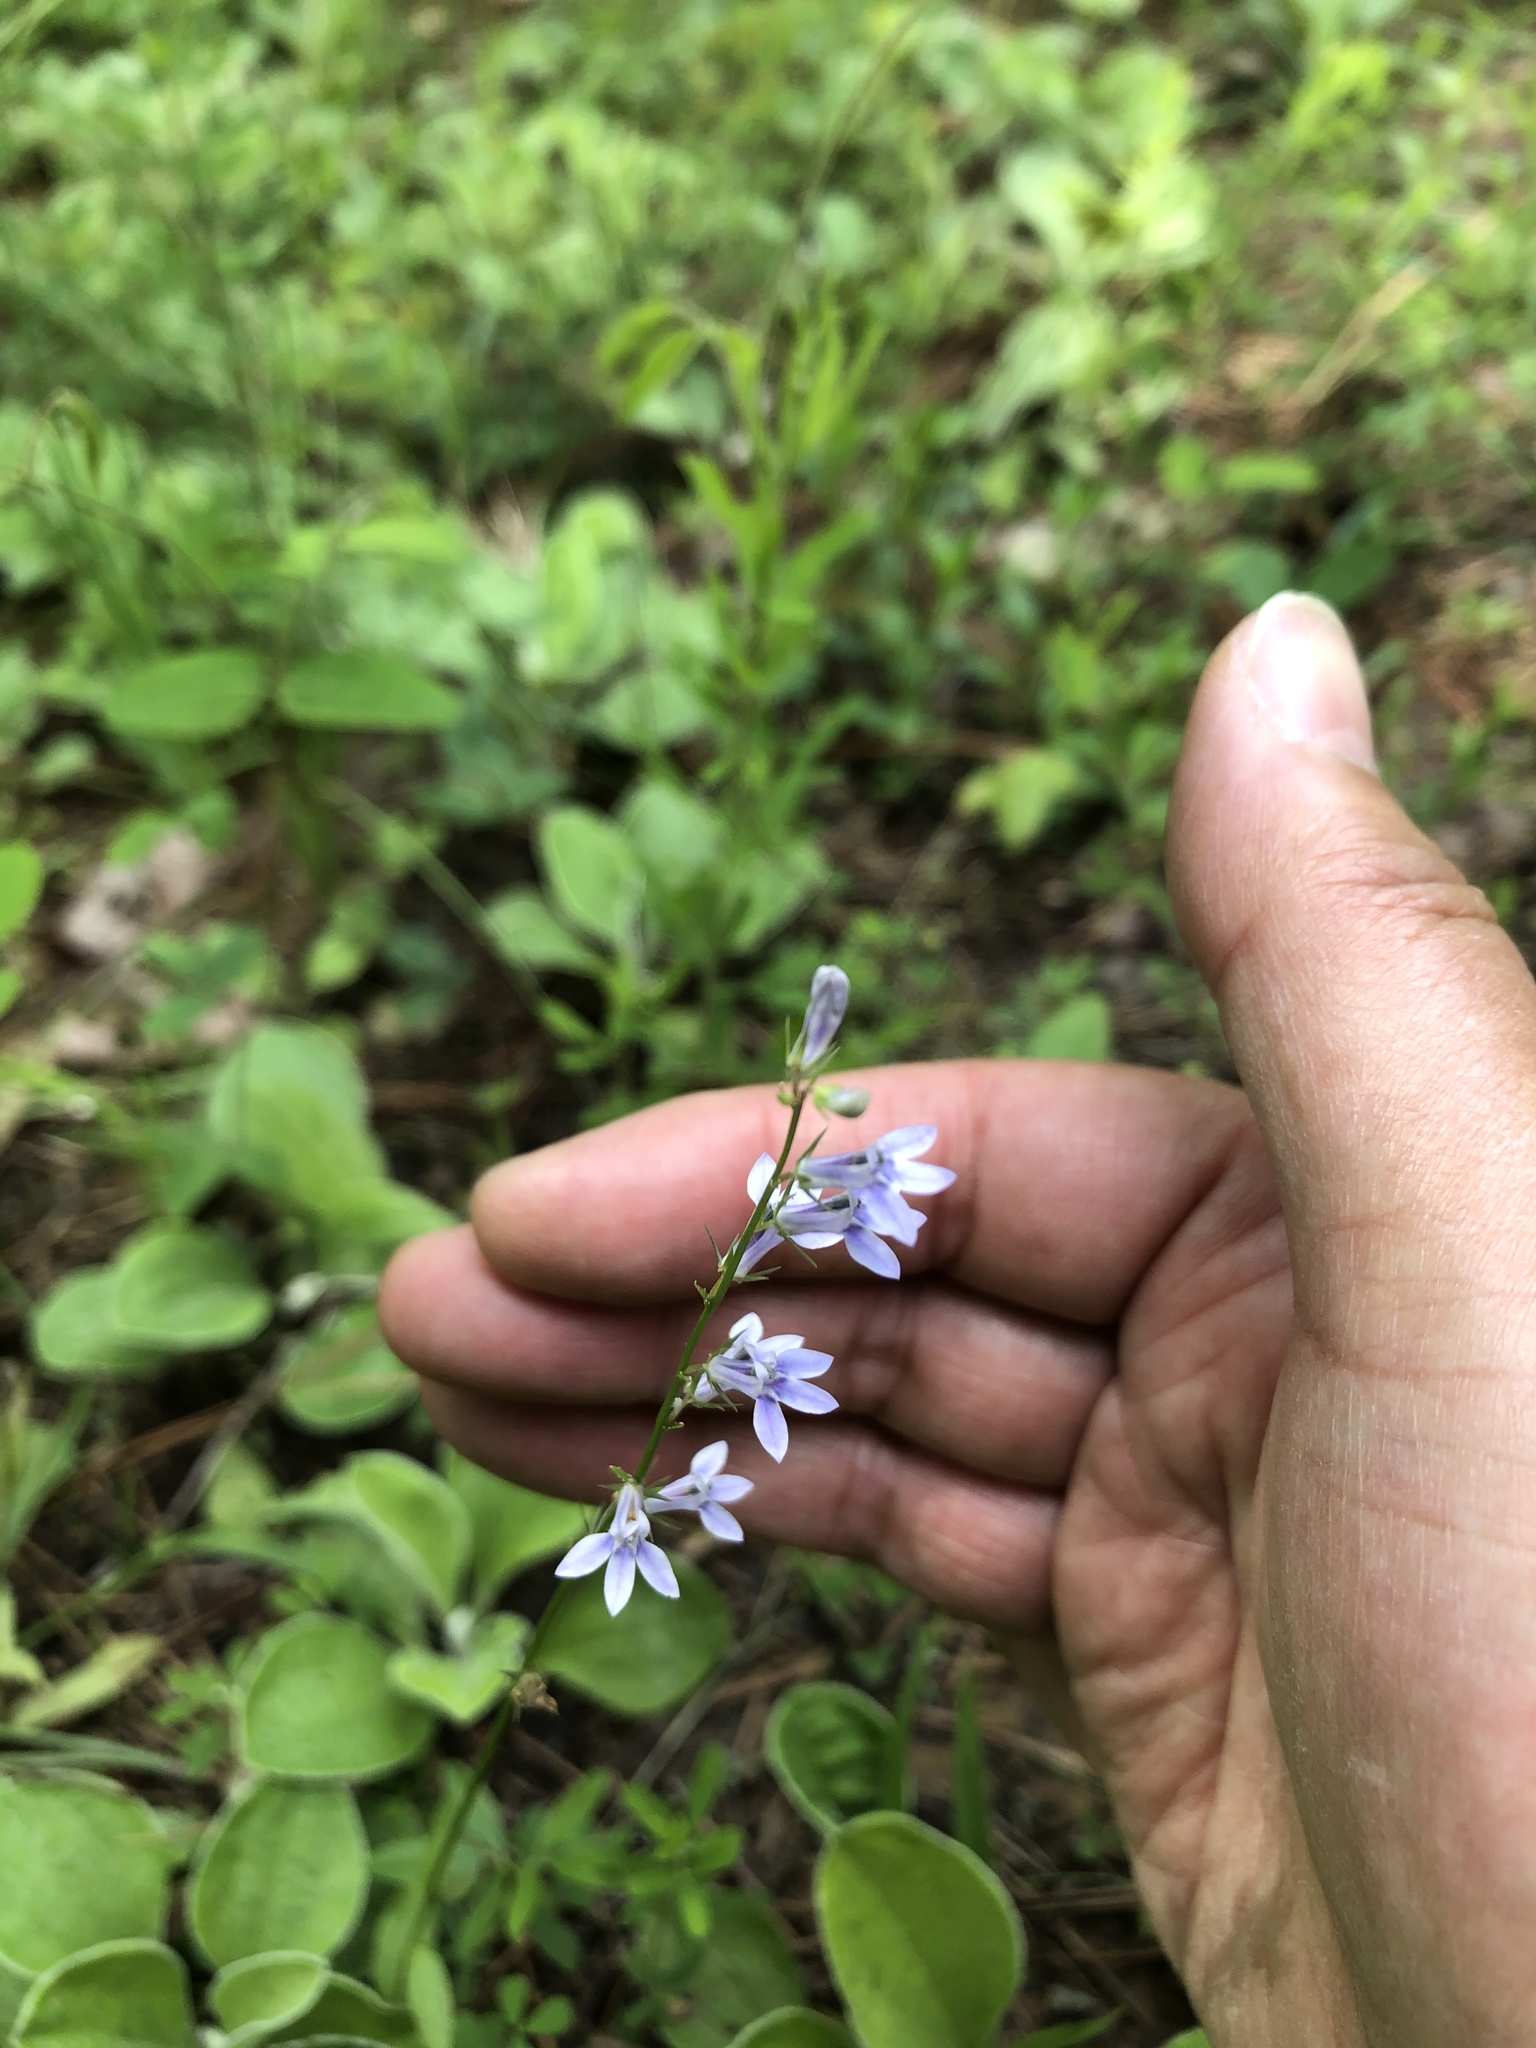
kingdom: Plantae
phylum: Tracheophyta
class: Magnoliopsida
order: Asterales
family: Campanulaceae
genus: Lobelia
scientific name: Lobelia spicata
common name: Pale-spike lobelia
